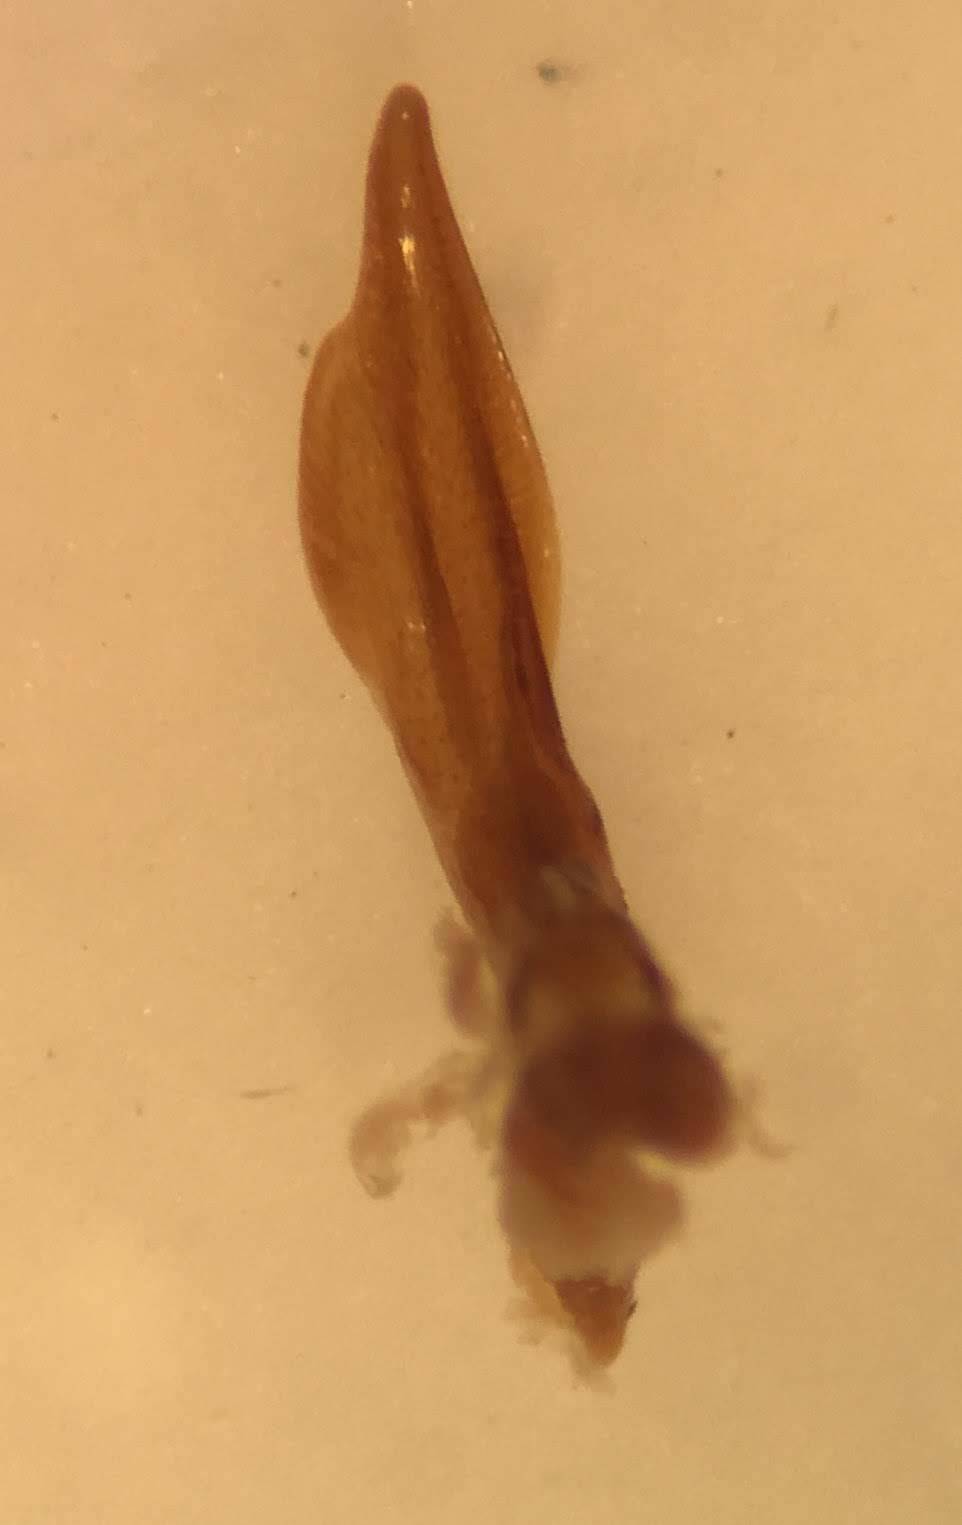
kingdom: Animalia
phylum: Arthropoda
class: Insecta
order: Coleoptera
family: Dytiscidae
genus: Coptotomus
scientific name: Coptotomus venustus
